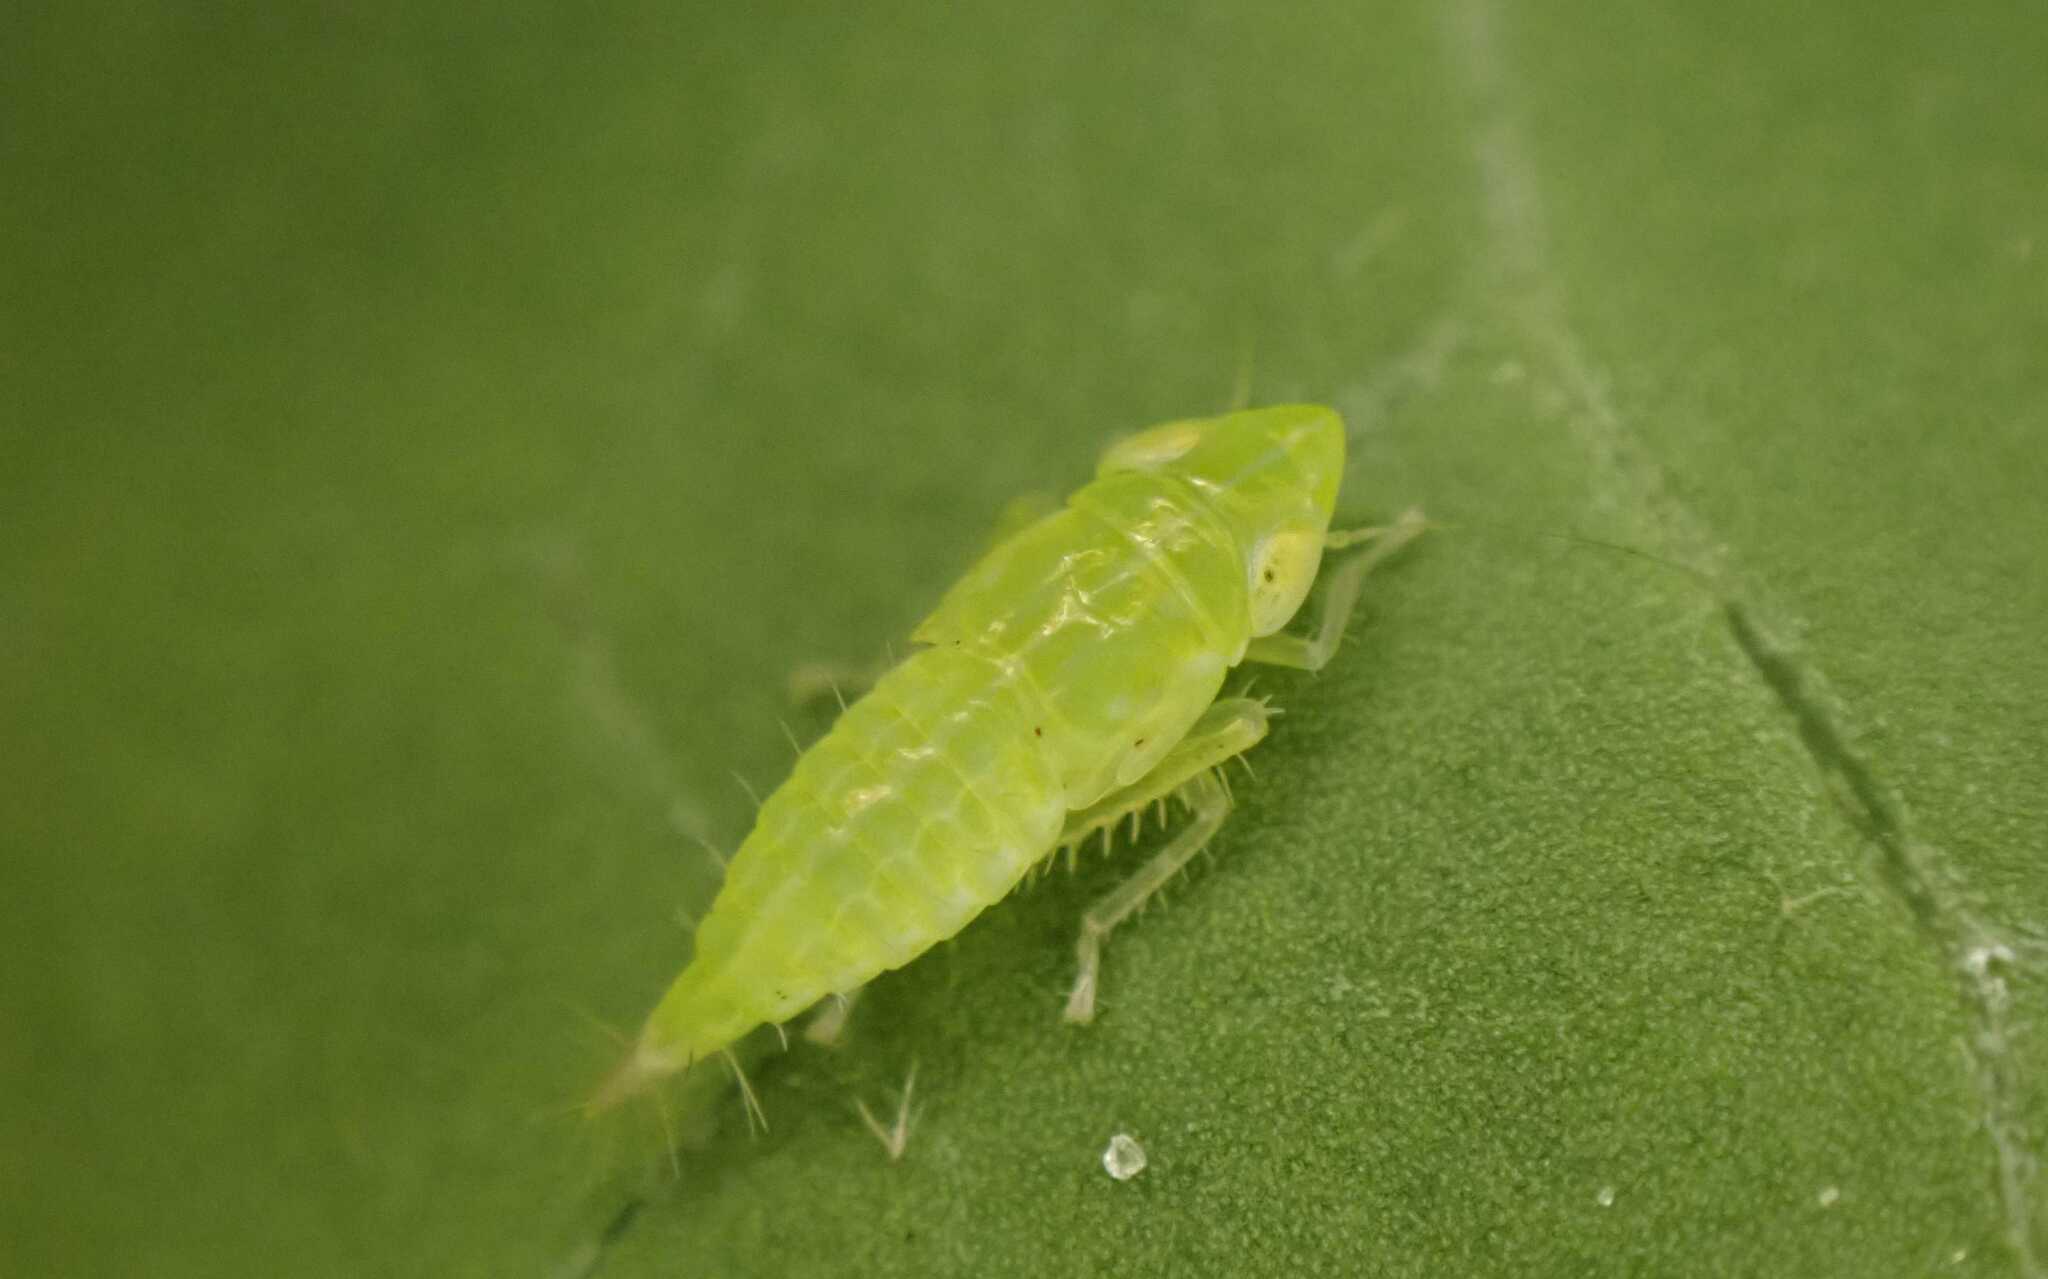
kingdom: Animalia
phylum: Arthropoda
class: Insecta
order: Hemiptera
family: Cicadellidae
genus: Synophropsis
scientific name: Synophropsis lauri
